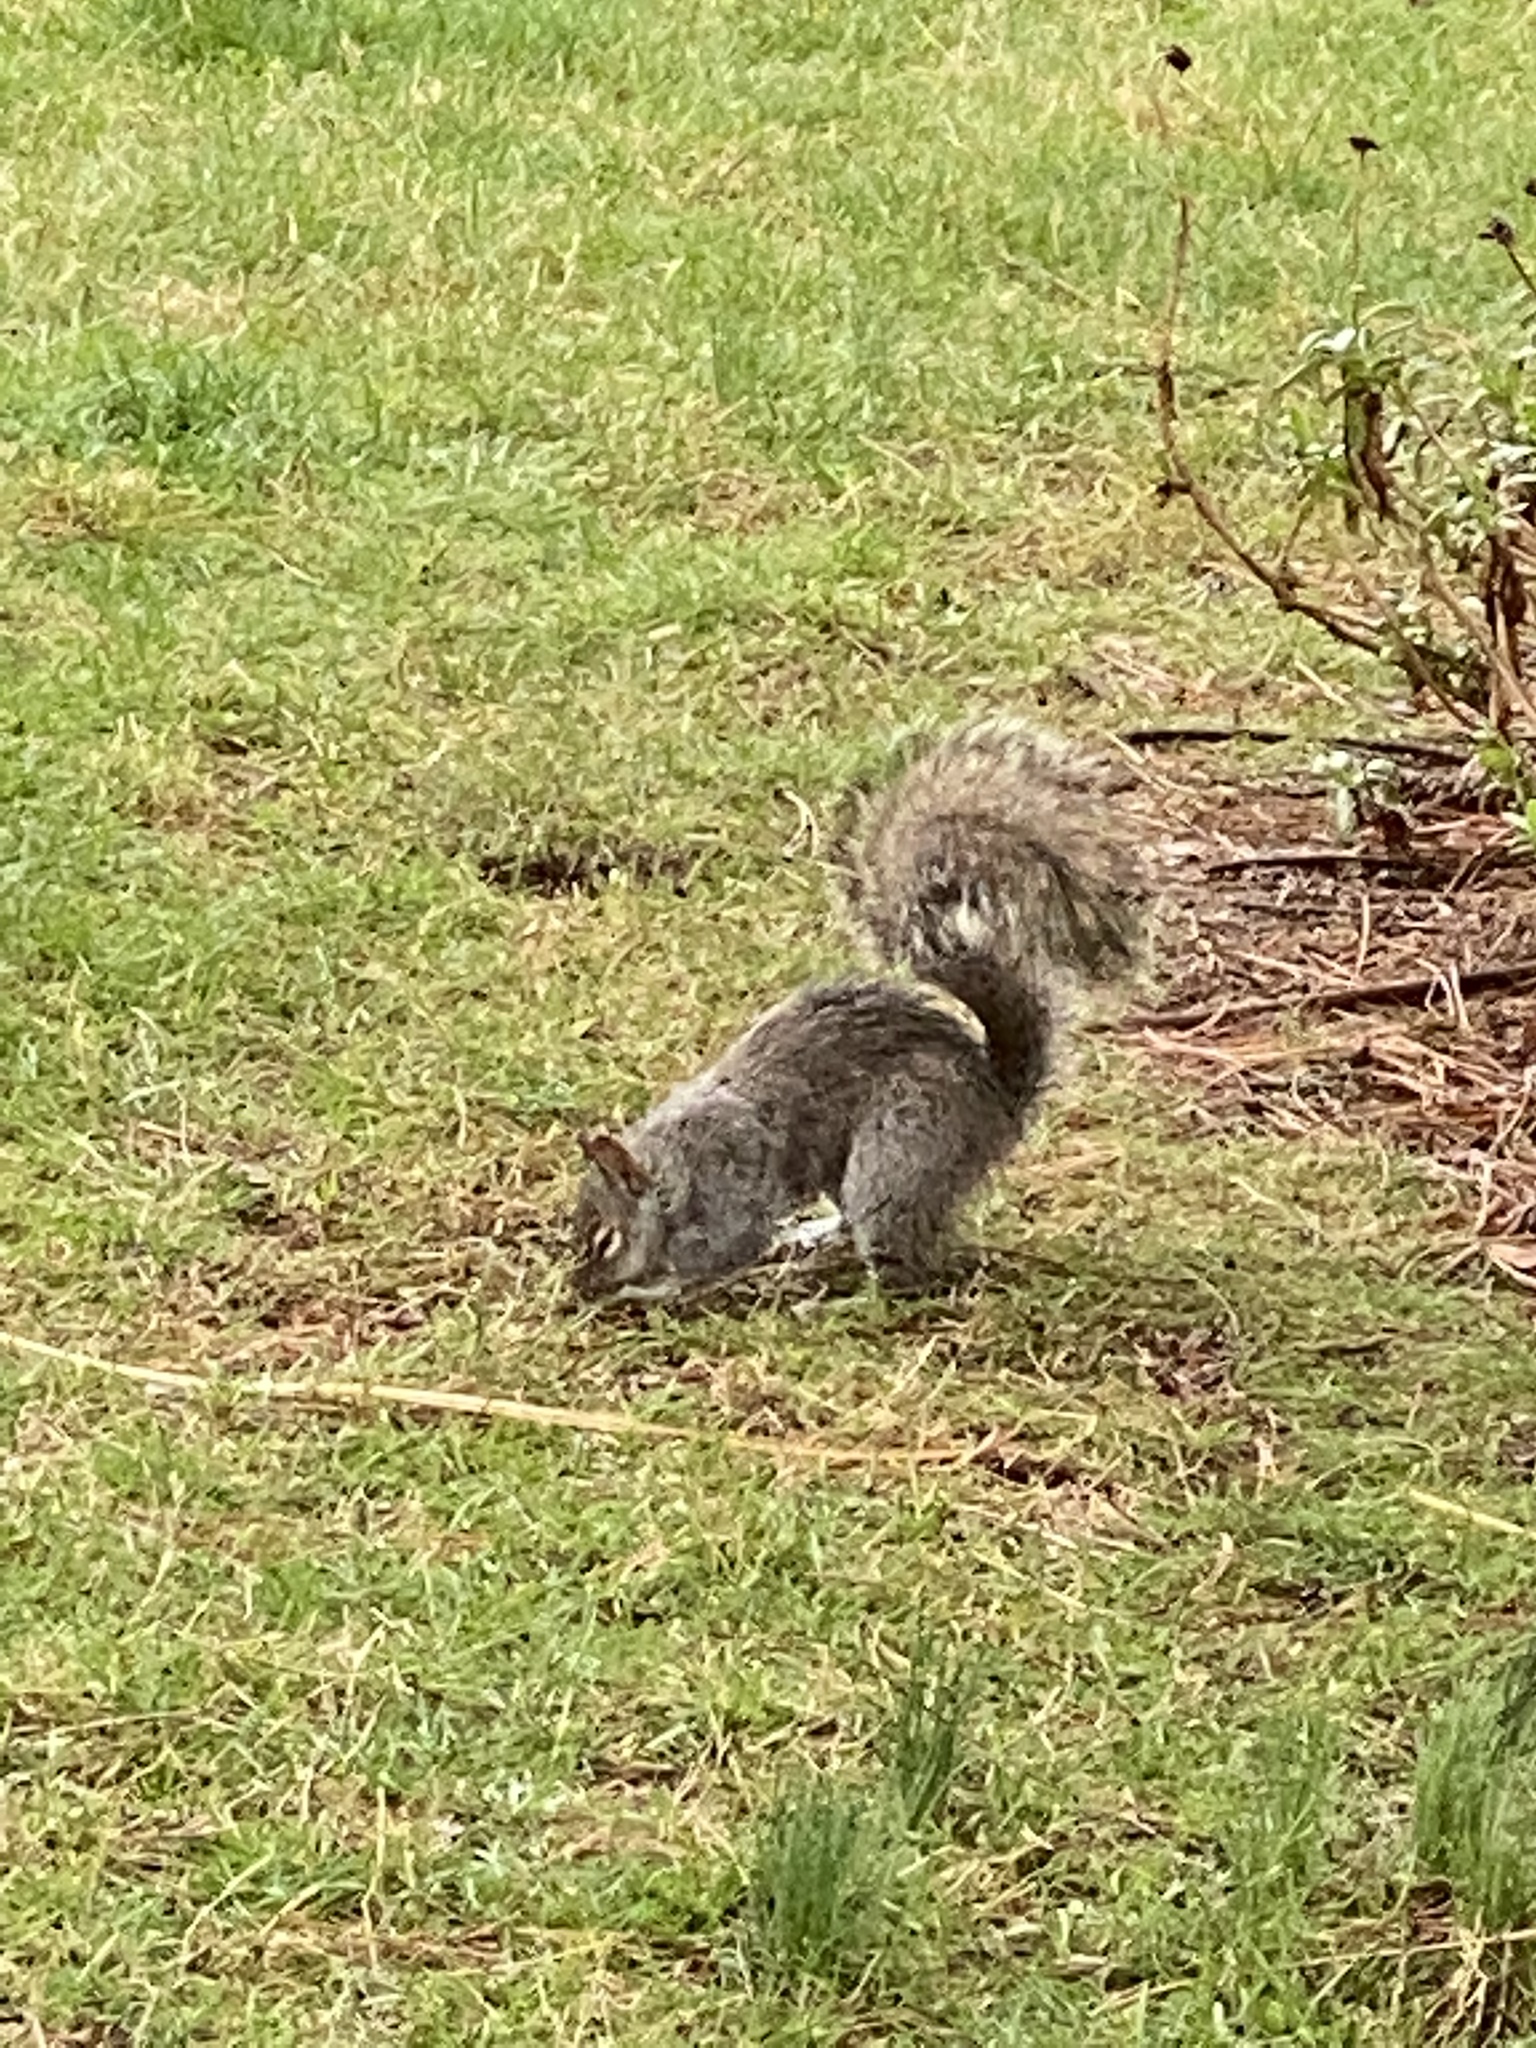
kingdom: Animalia
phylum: Chordata
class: Mammalia
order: Rodentia
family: Sciuridae
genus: Sciurus
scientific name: Sciurus carolinensis
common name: Eastern gray squirrel
